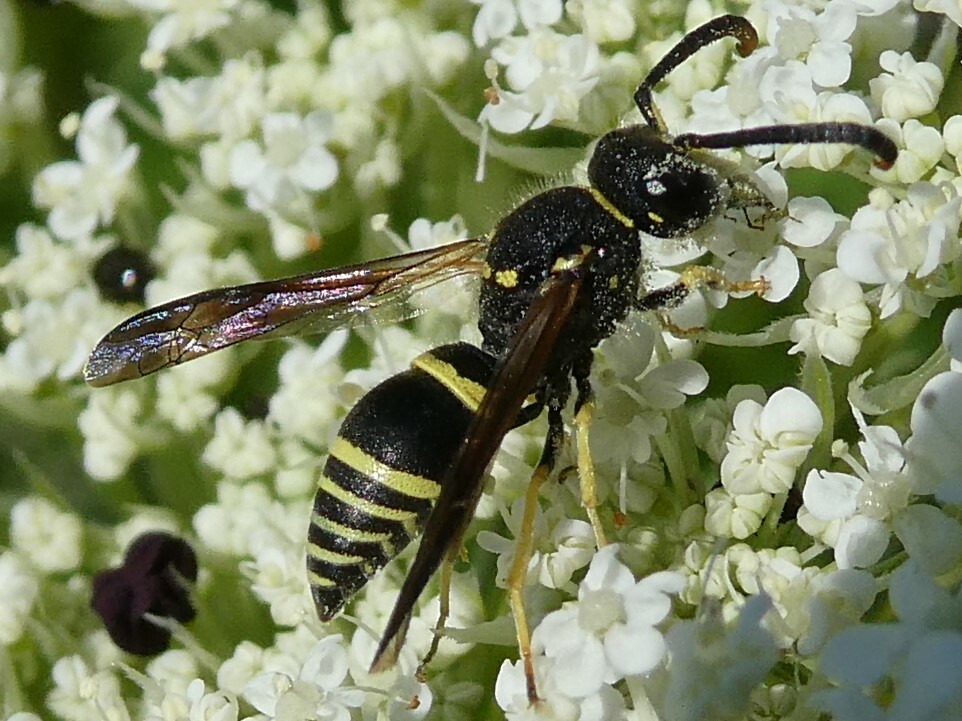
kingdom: Animalia
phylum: Arthropoda
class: Insecta
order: Hymenoptera
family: Vespidae
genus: Ancistrocerus
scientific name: Ancistrocerus
